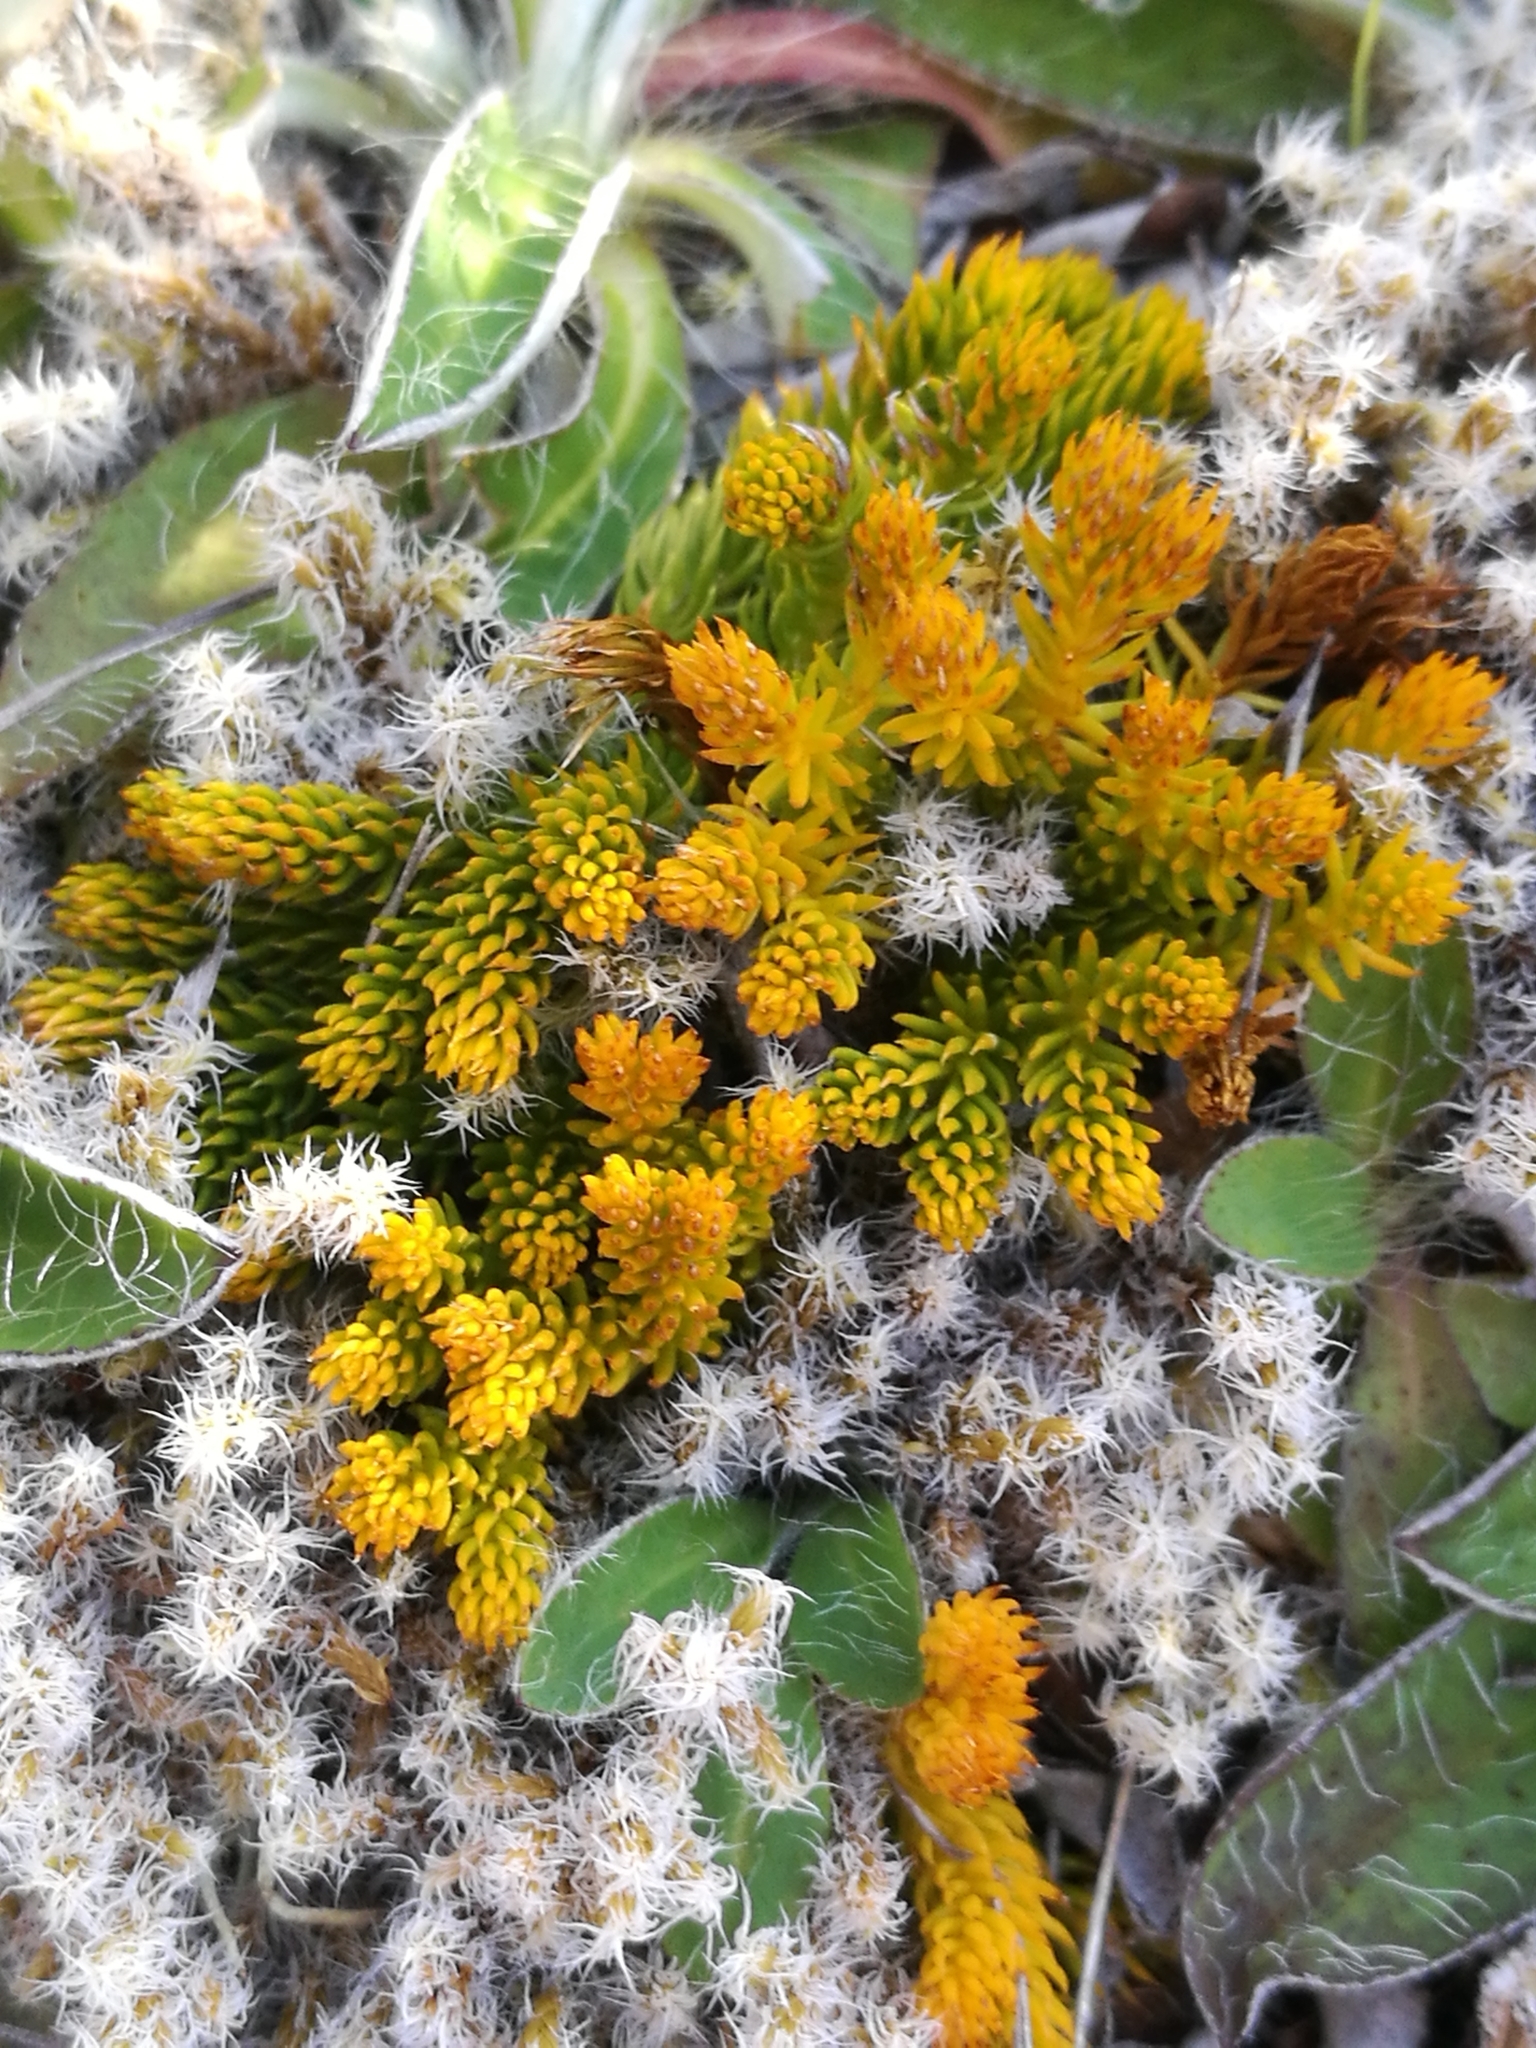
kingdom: Plantae
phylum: Tracheophyta
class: Lycopodiopsida
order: Lycopodiales
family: Lycopodiaceae
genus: Austrolycopodium
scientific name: Austrolycopodium fastigiatum
